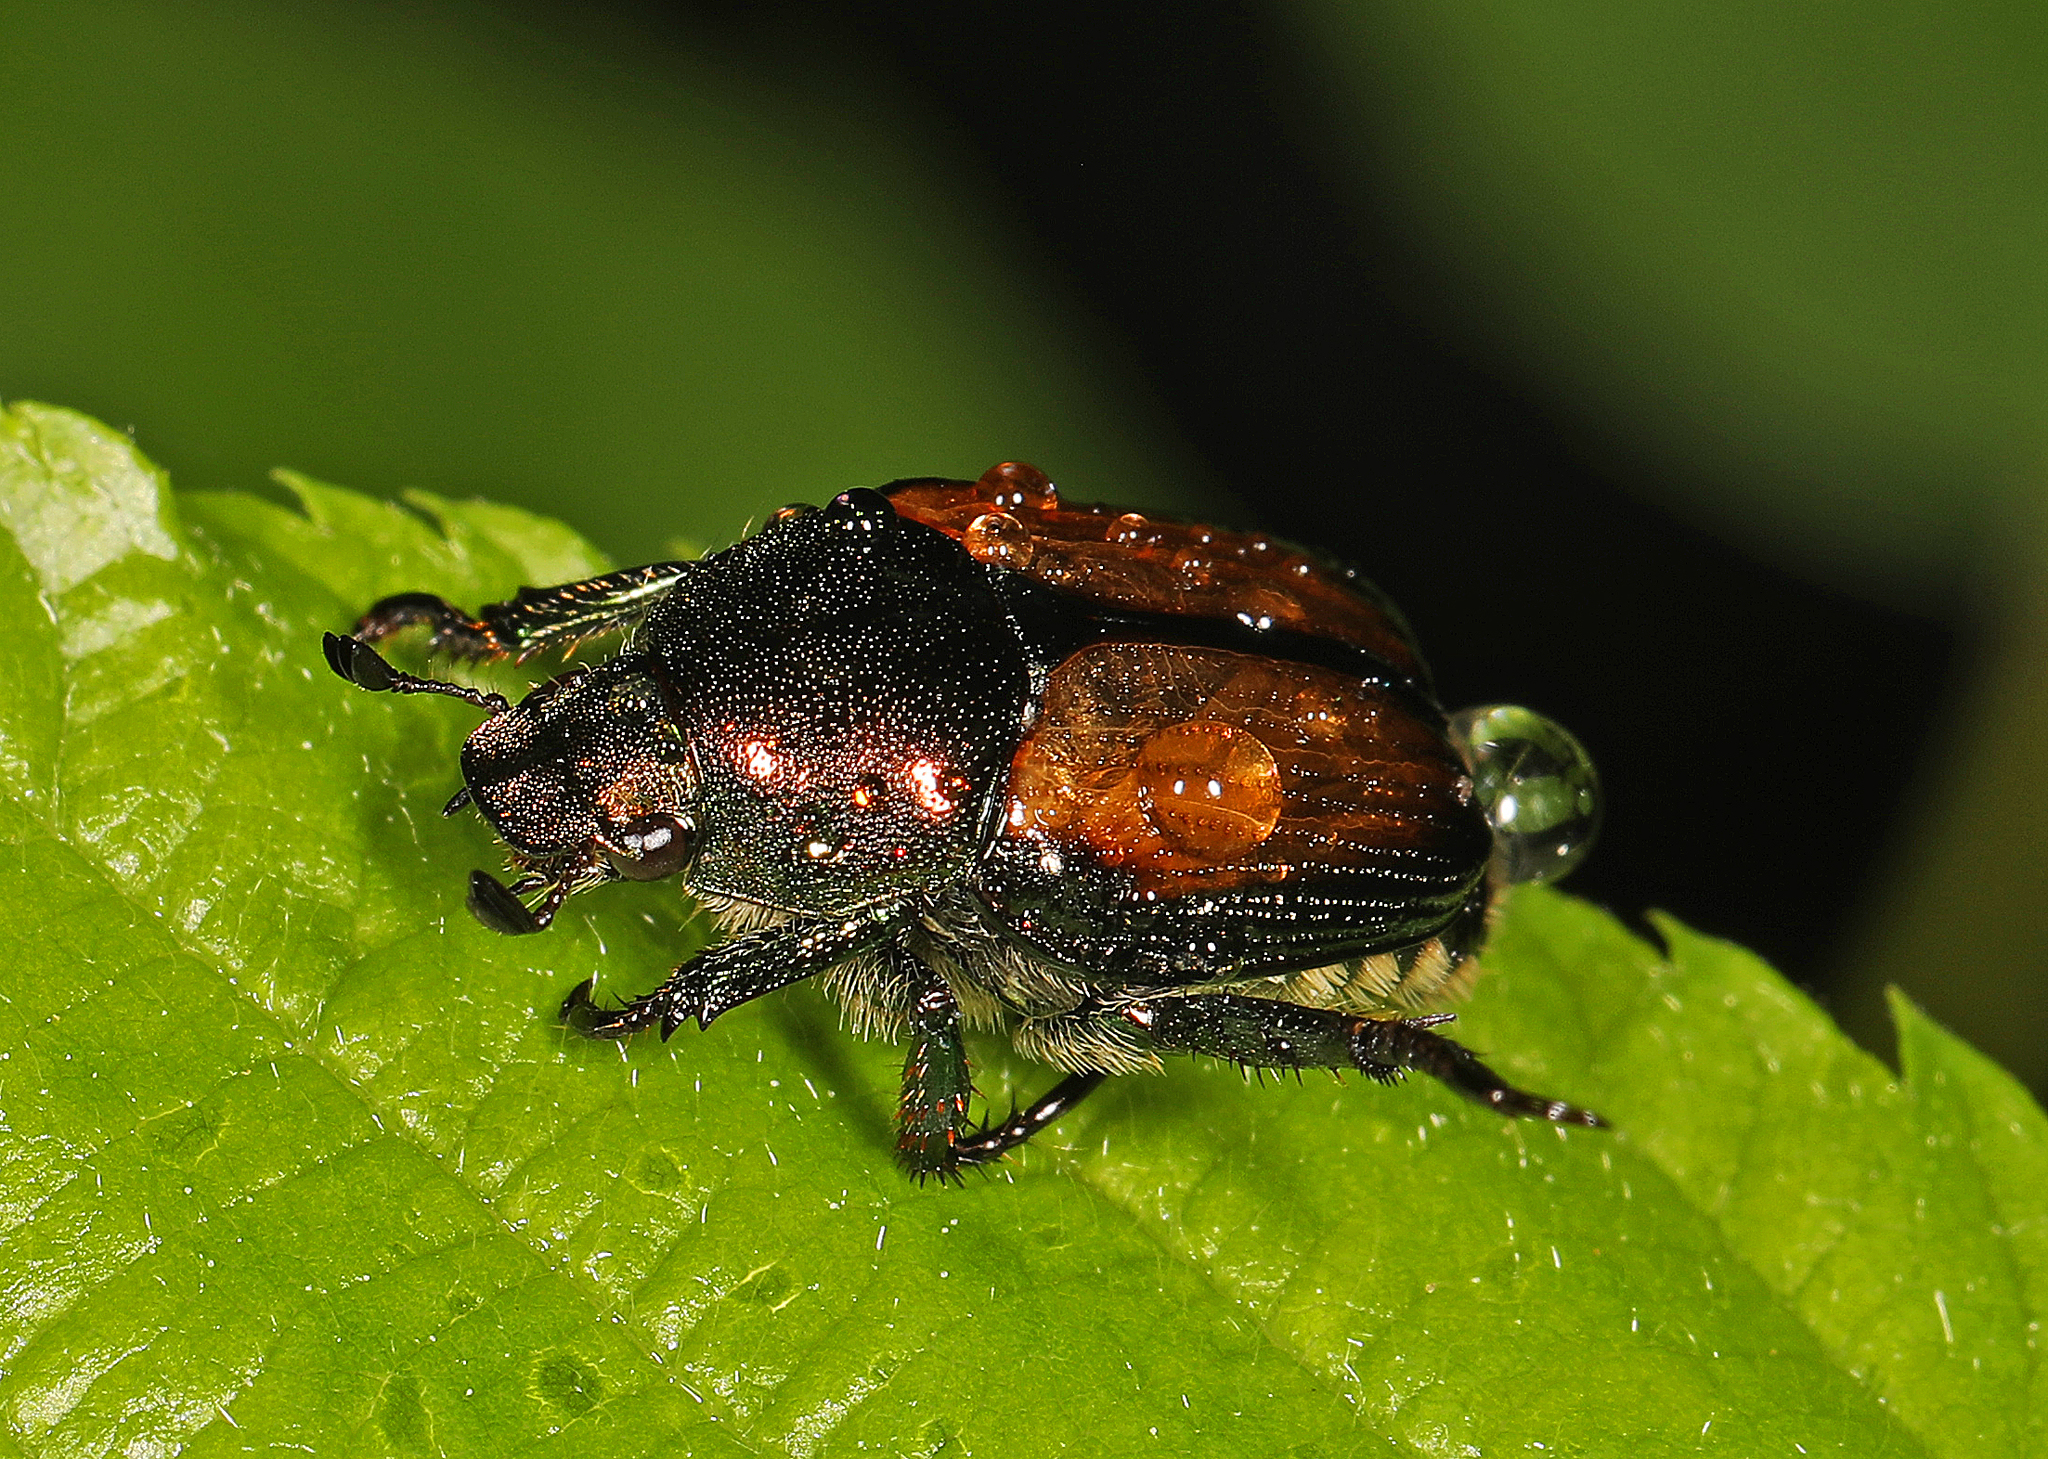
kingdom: Animalia
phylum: Arthropoda
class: Insecta
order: Coleoptera
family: Scarabaeidae
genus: Popillia
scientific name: Popillia japonica
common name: Japanese beetle
